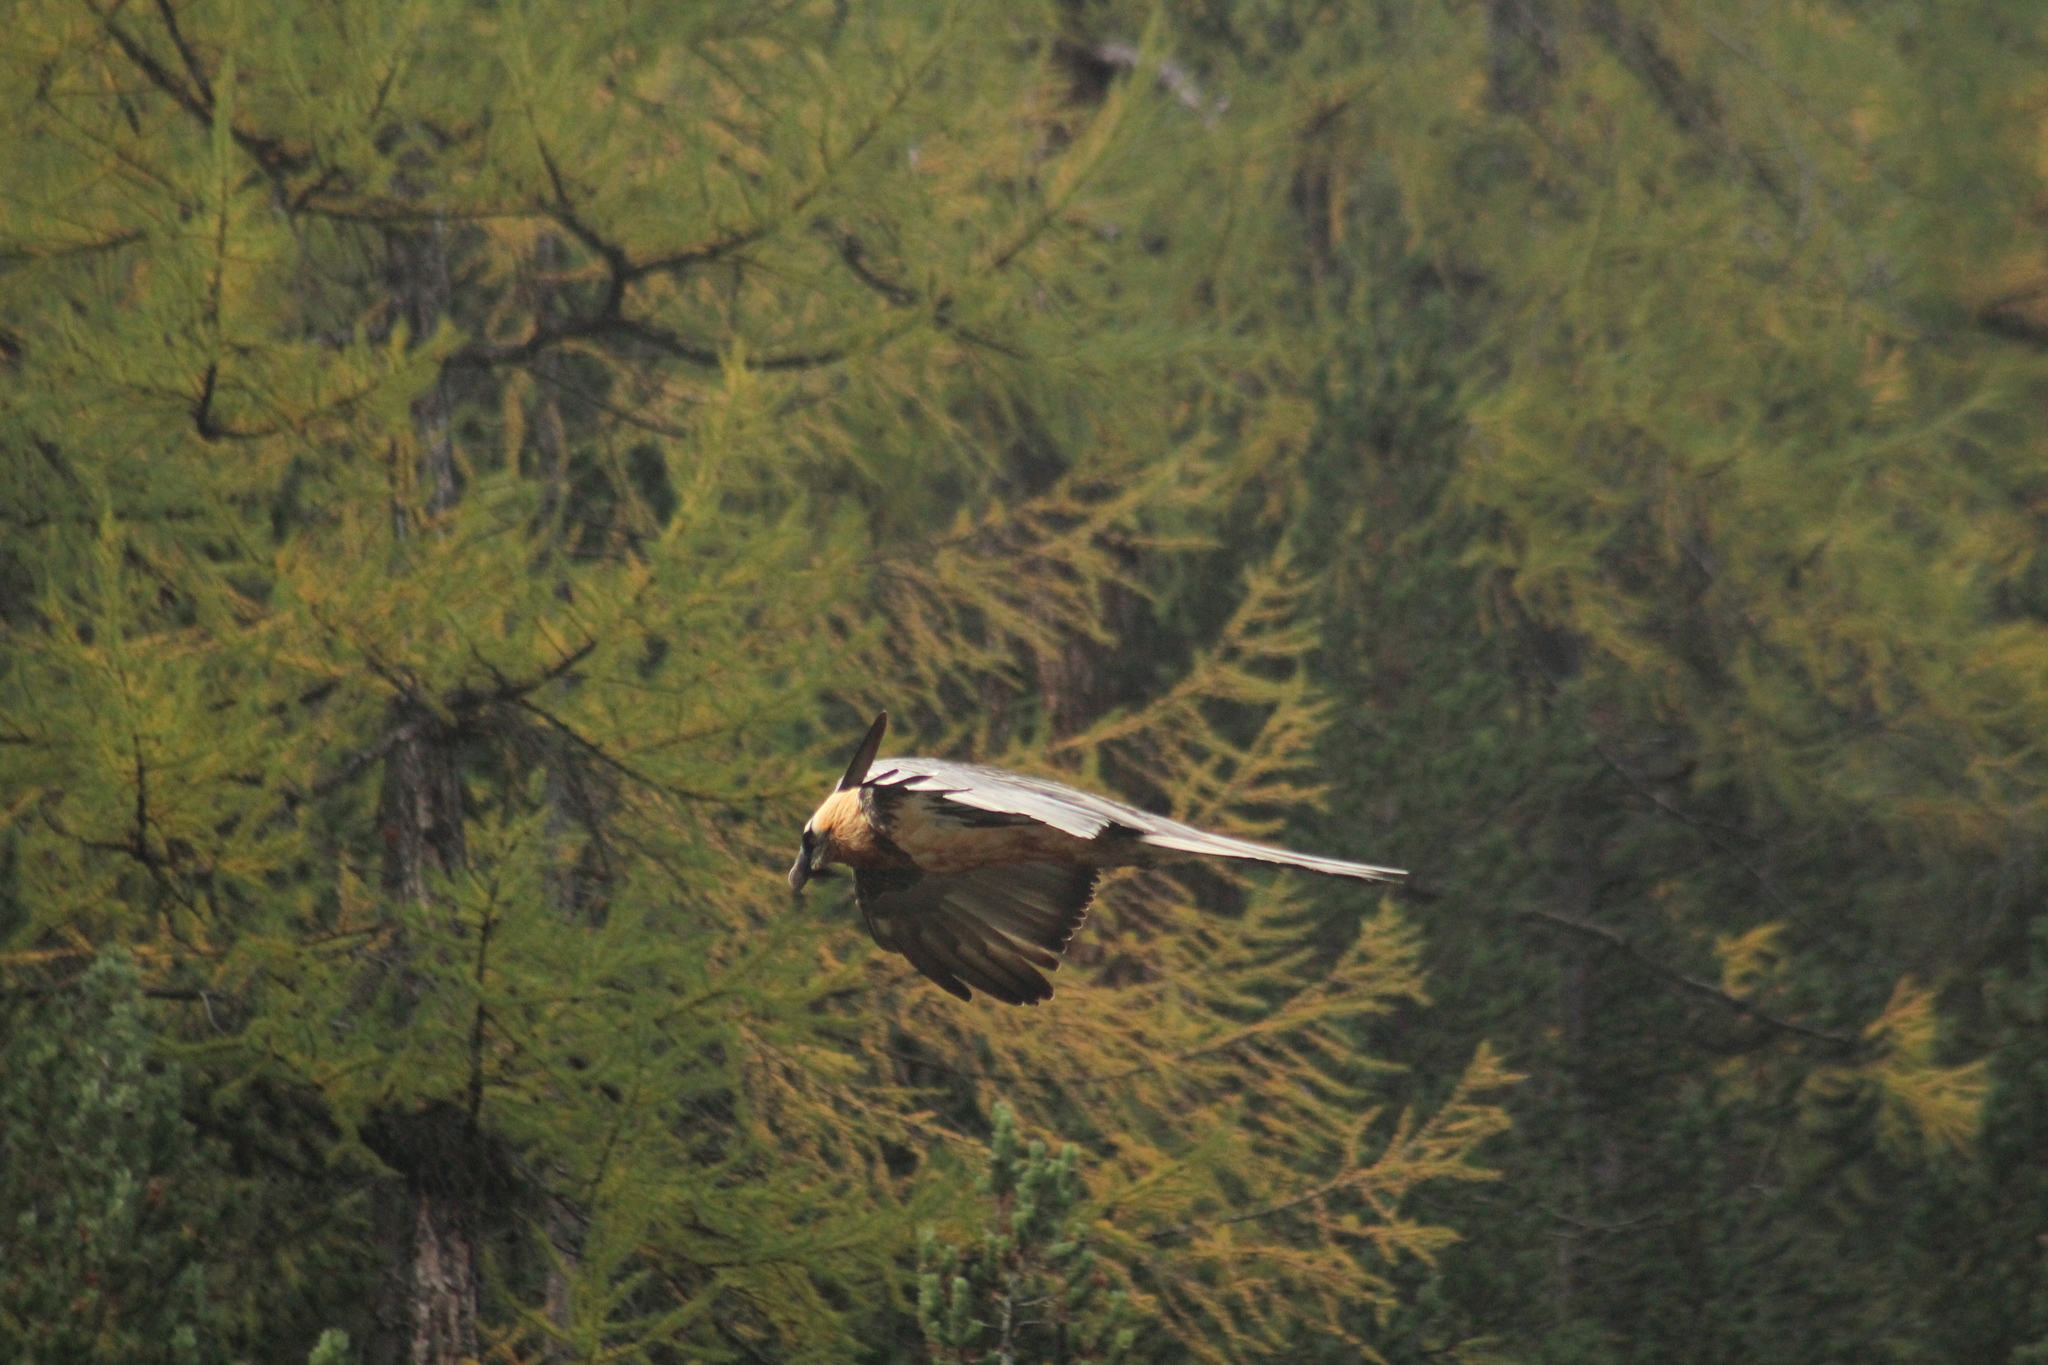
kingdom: Animalia
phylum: Chordata
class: Aves
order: Accipitriformes
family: Accipitridae
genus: Gypaetus
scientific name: Gypaetus barbatus
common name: Bearded vulture
